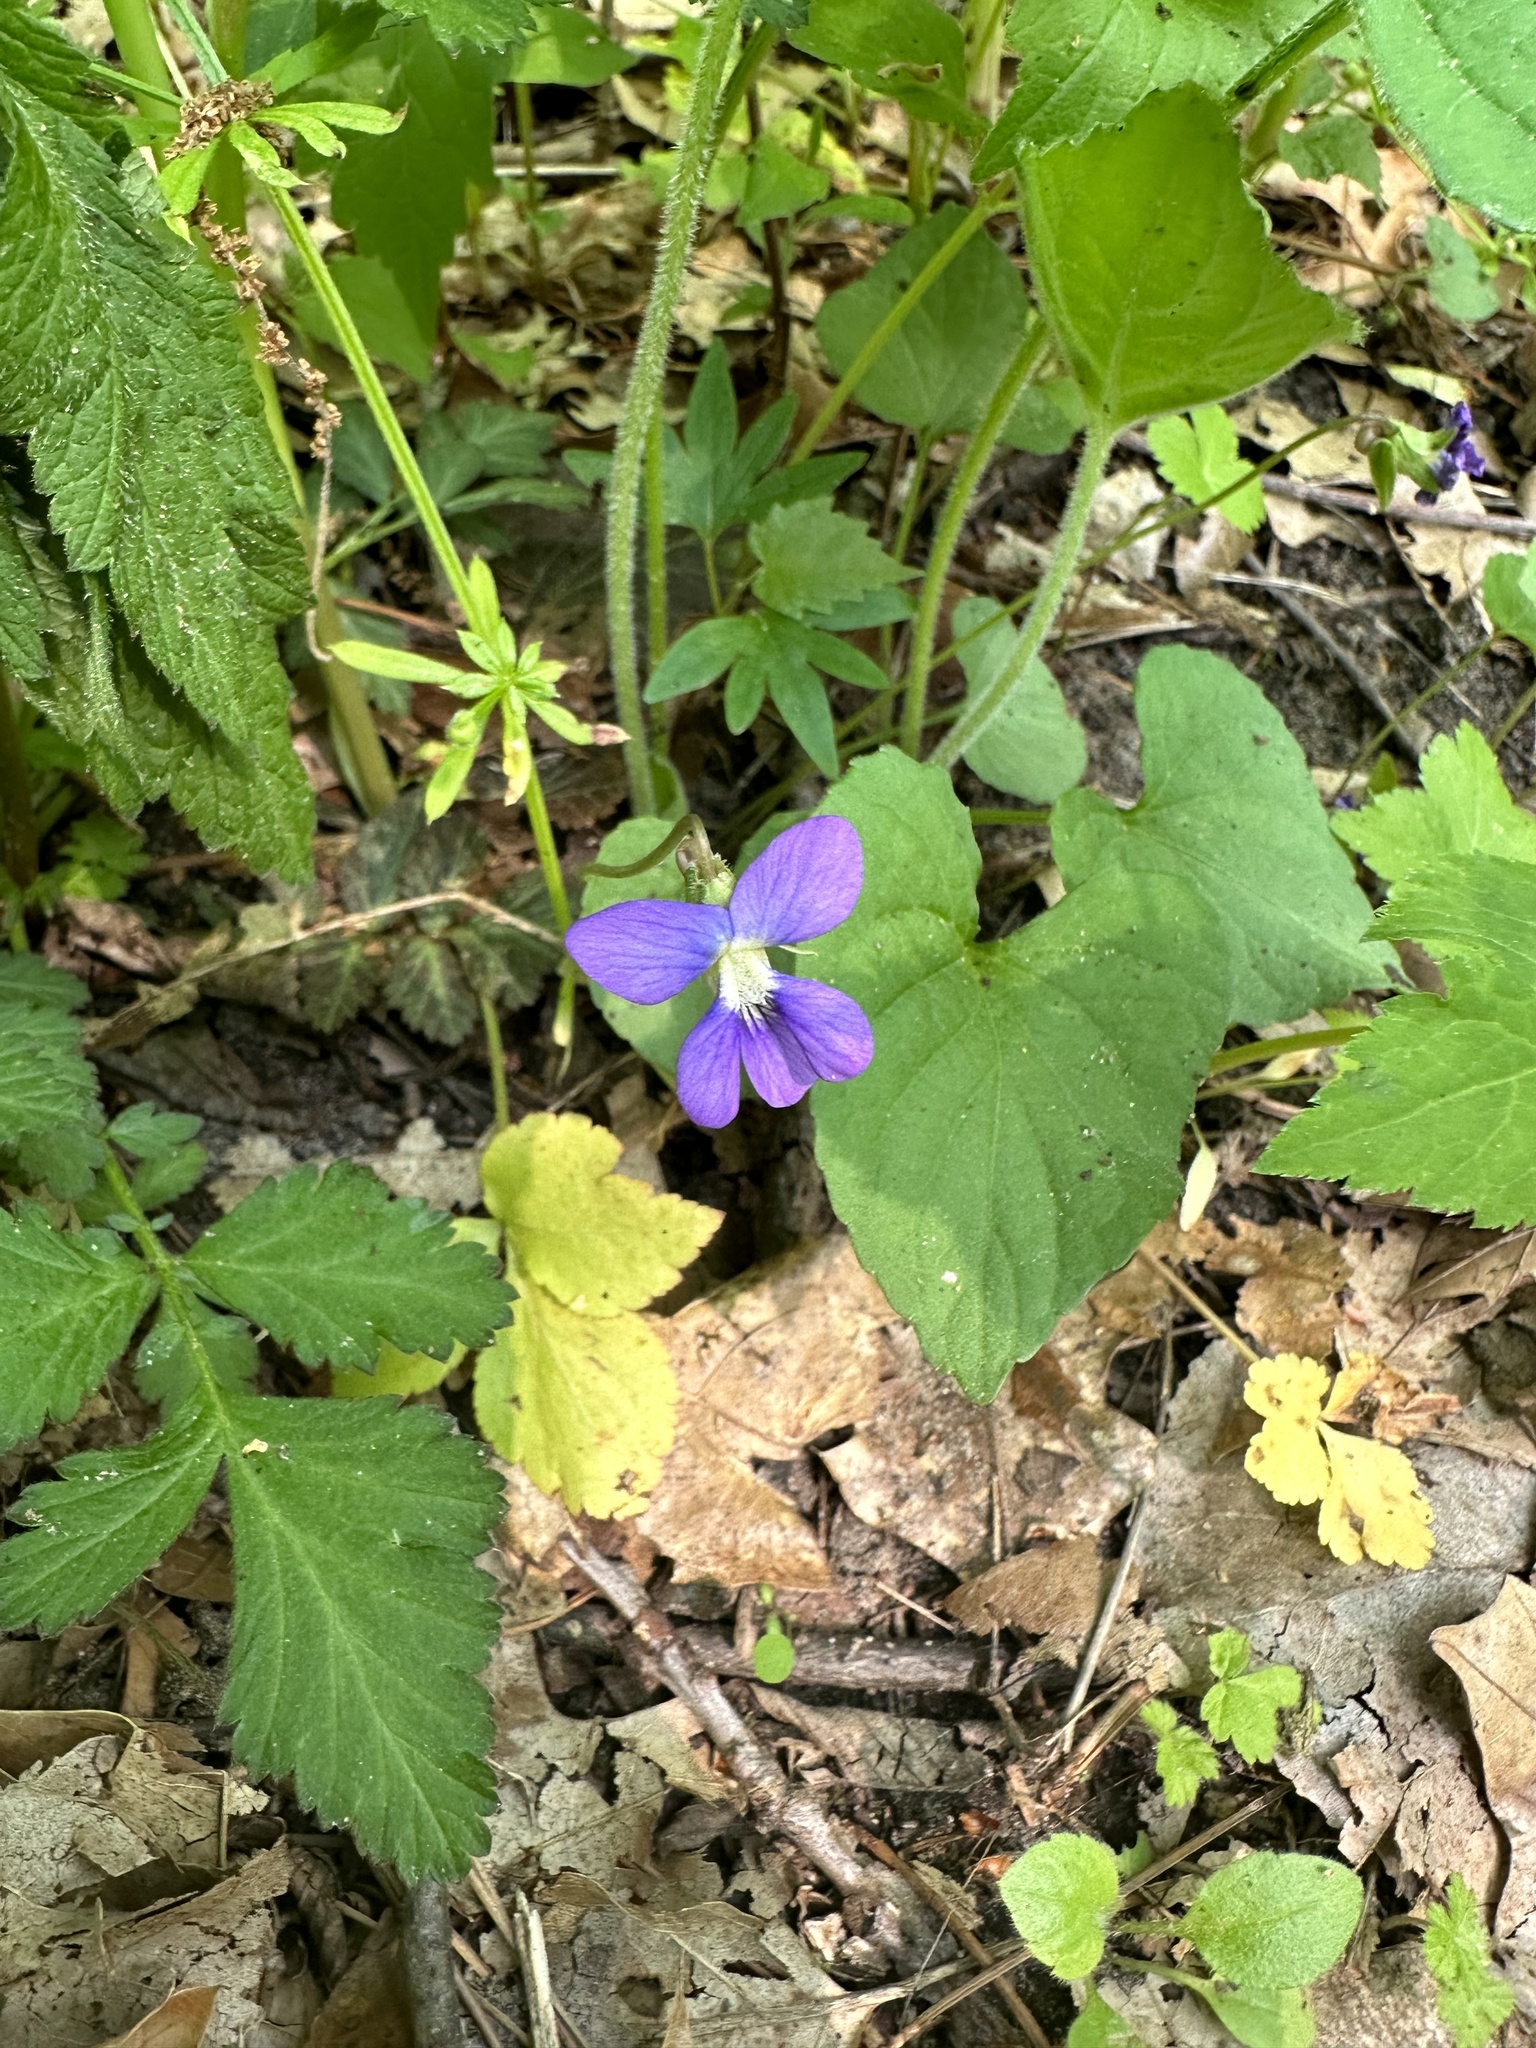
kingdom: Plantae
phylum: Tracheophyta
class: Magnoliopsida
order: Malpighiales
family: Violaceae
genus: Viola
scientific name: Viola sororia
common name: Dooryard violet
